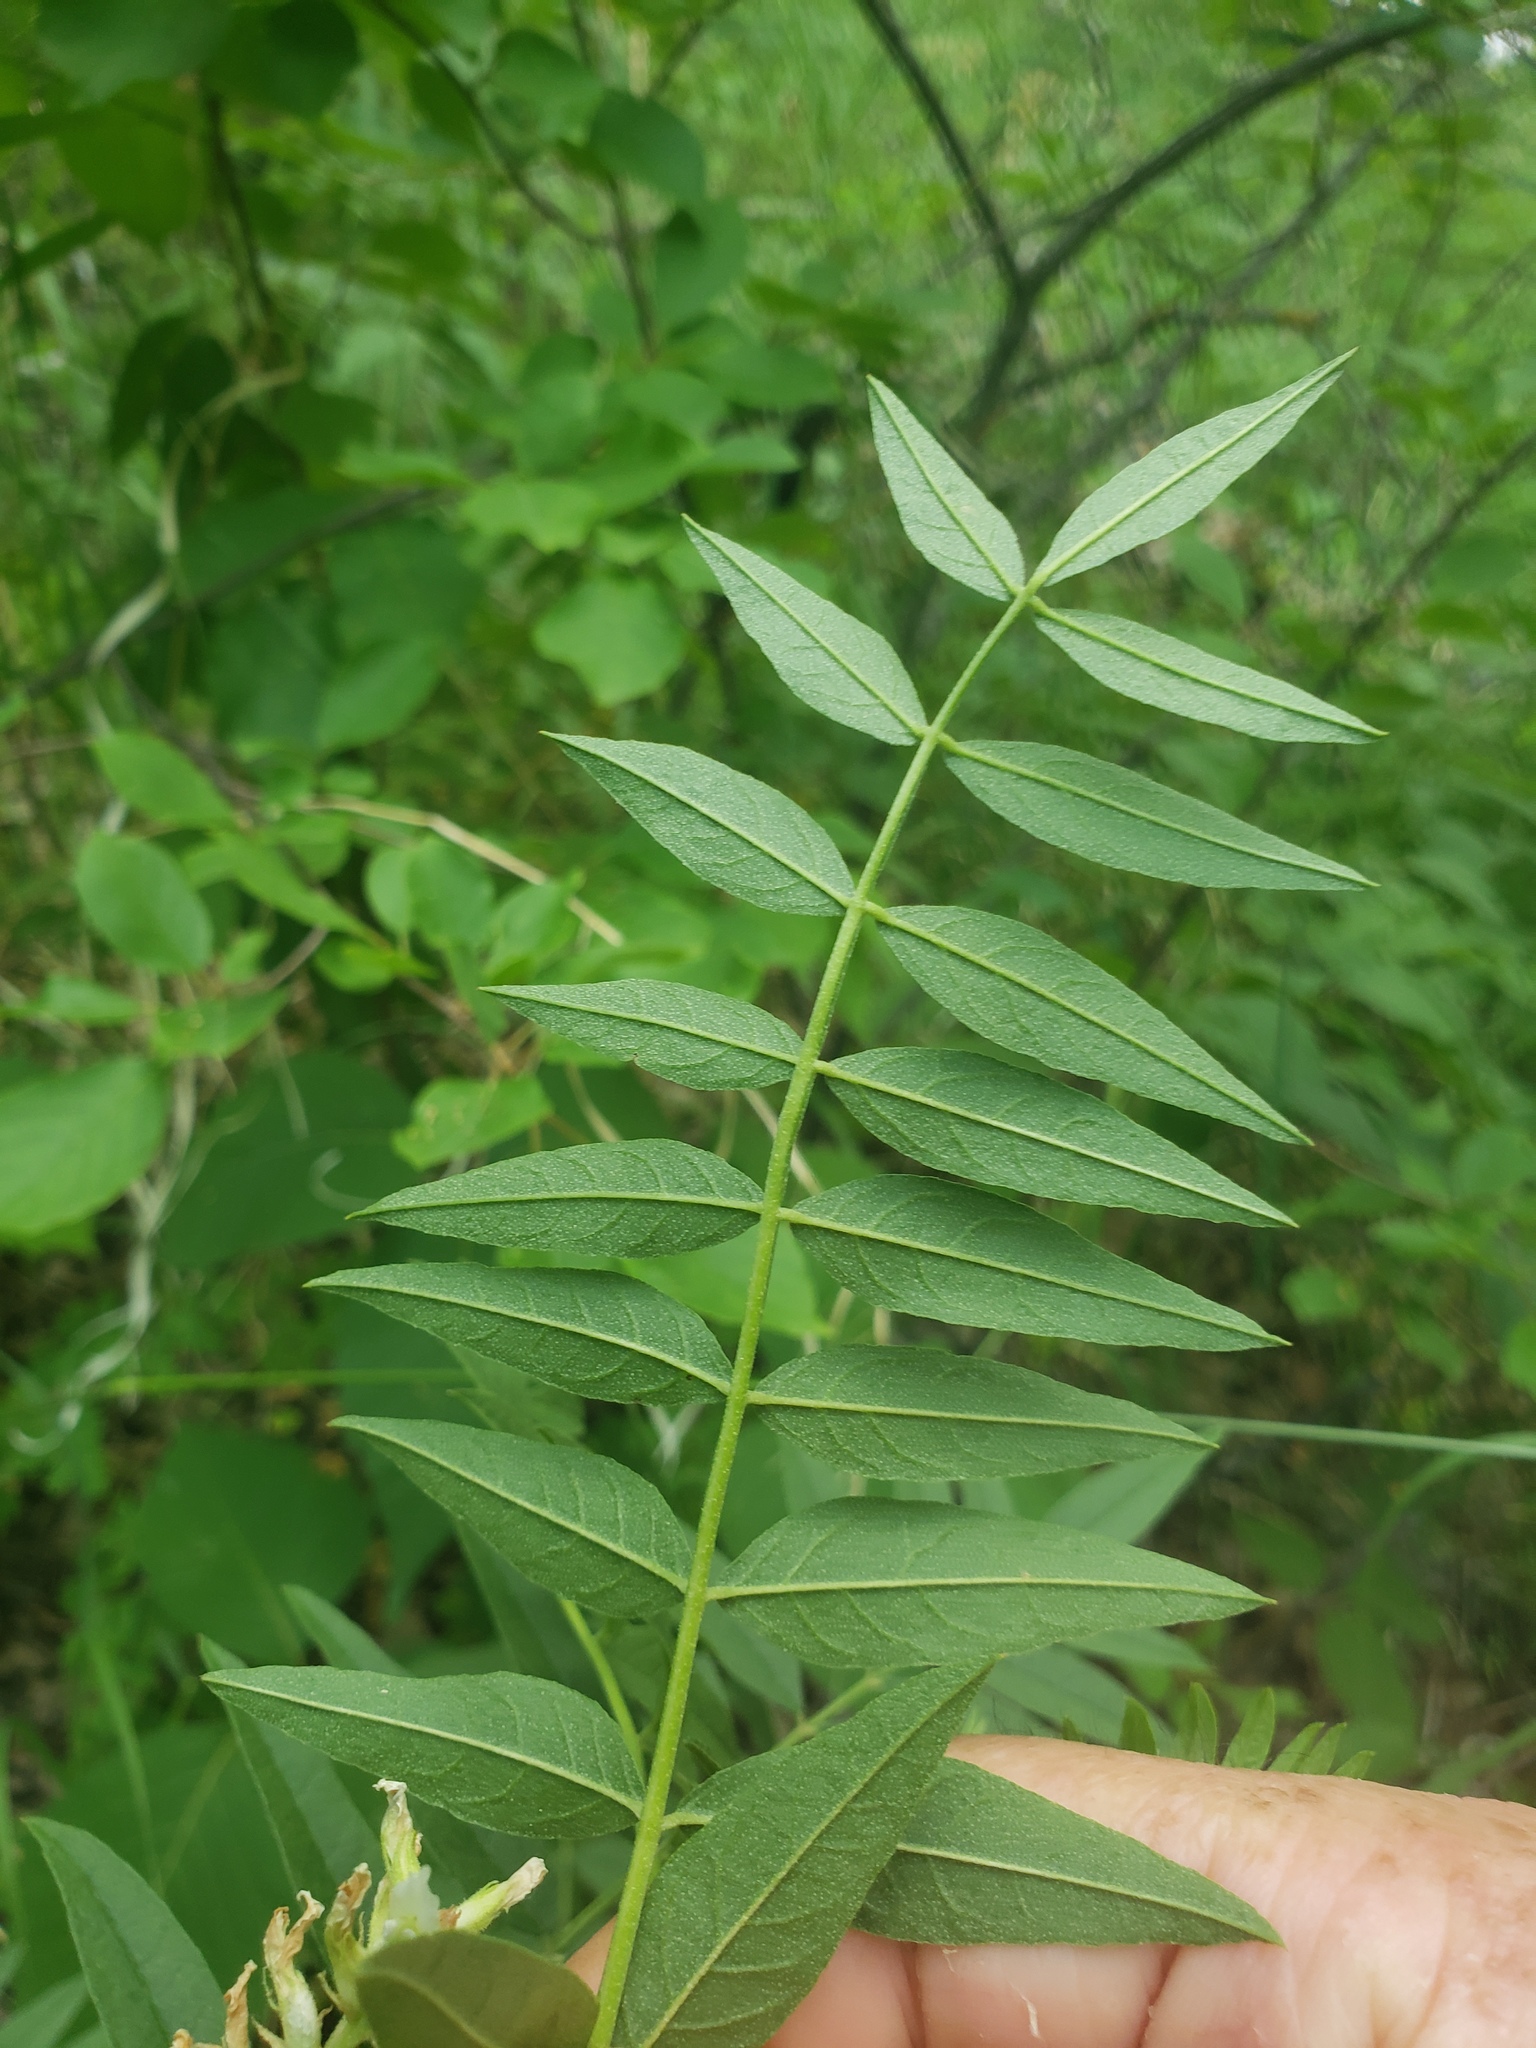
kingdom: Plantae
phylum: Tracheophyta
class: Magnoliopsida
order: Fabales
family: Fabaceae
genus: Glycyrrhiza
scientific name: Glycyrrhiza lepidota
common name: American liquorice
